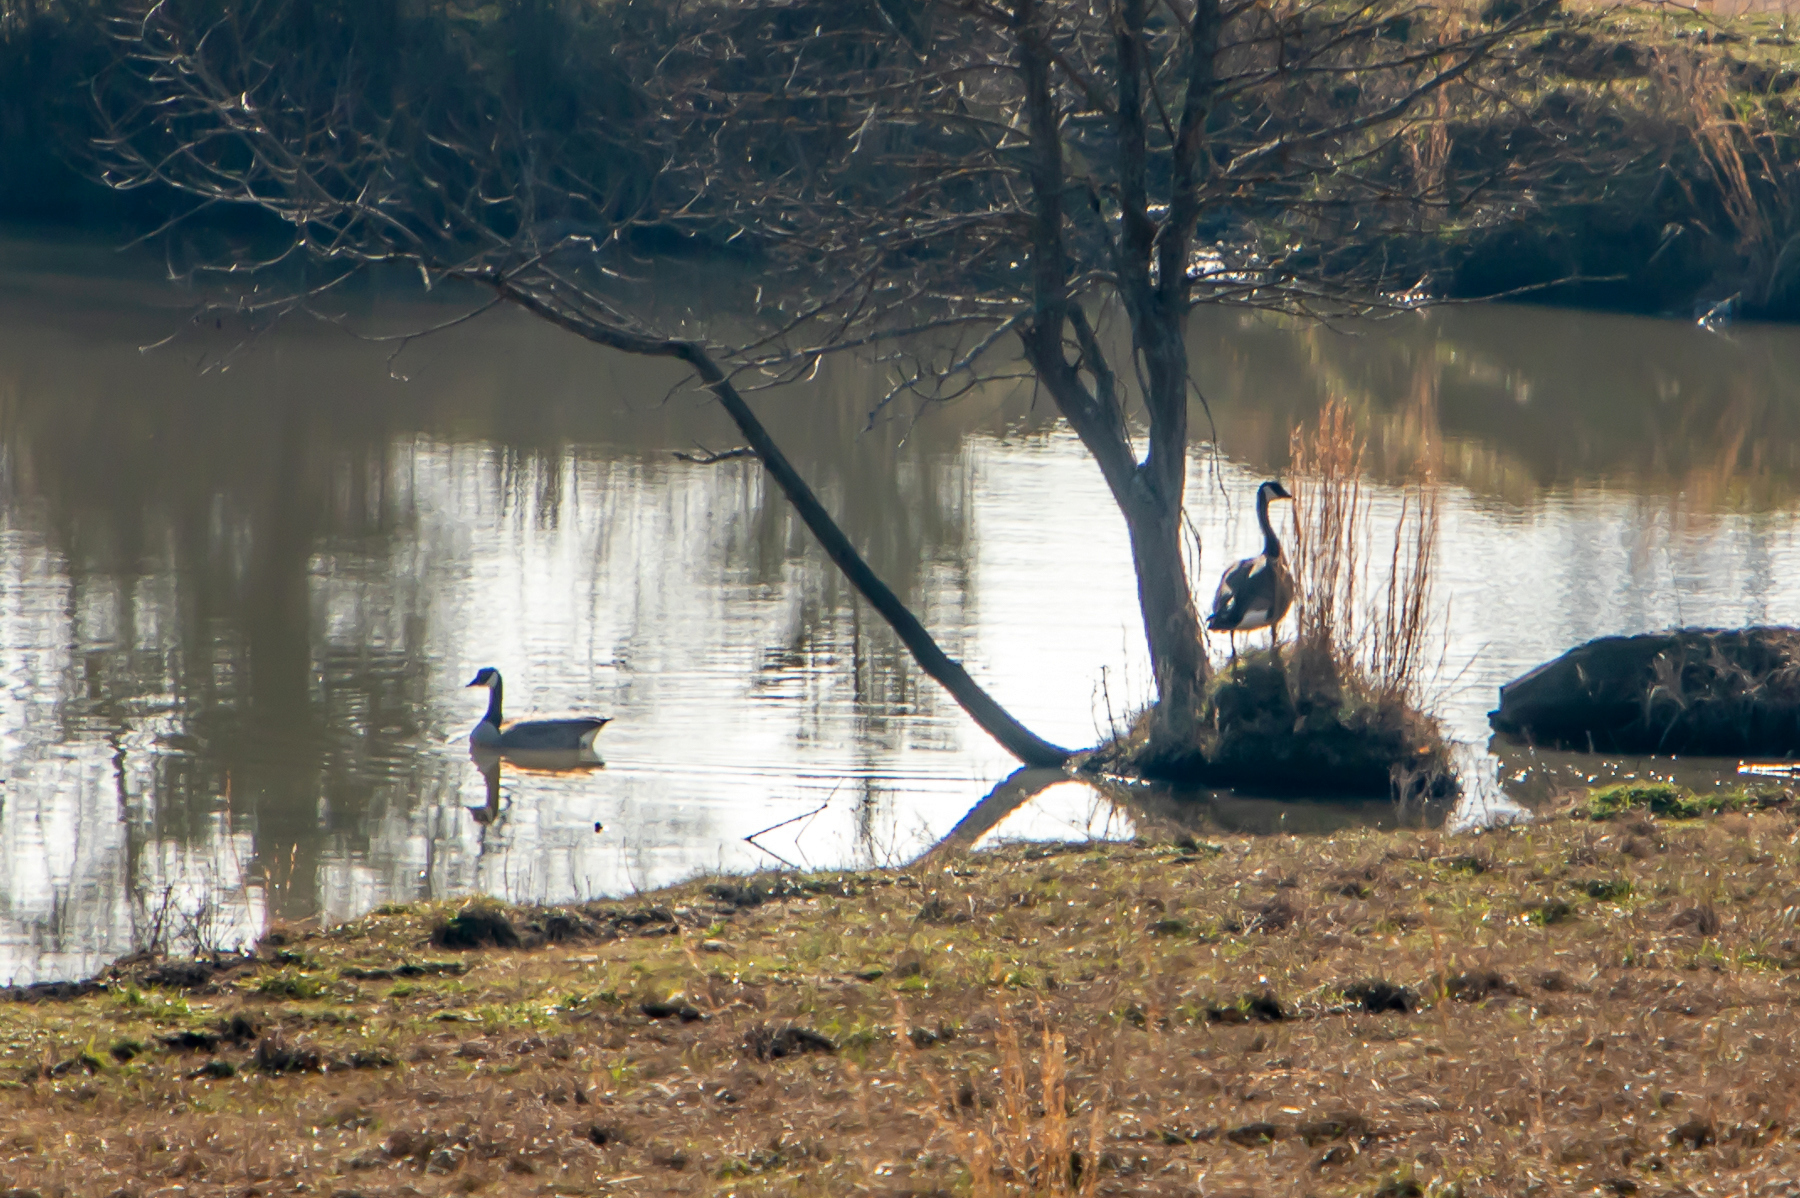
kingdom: Animalia
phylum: Chordata
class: Aves
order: Anseriformes
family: Anatidae
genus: Branta
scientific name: Branta canadensis
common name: Canada goose
